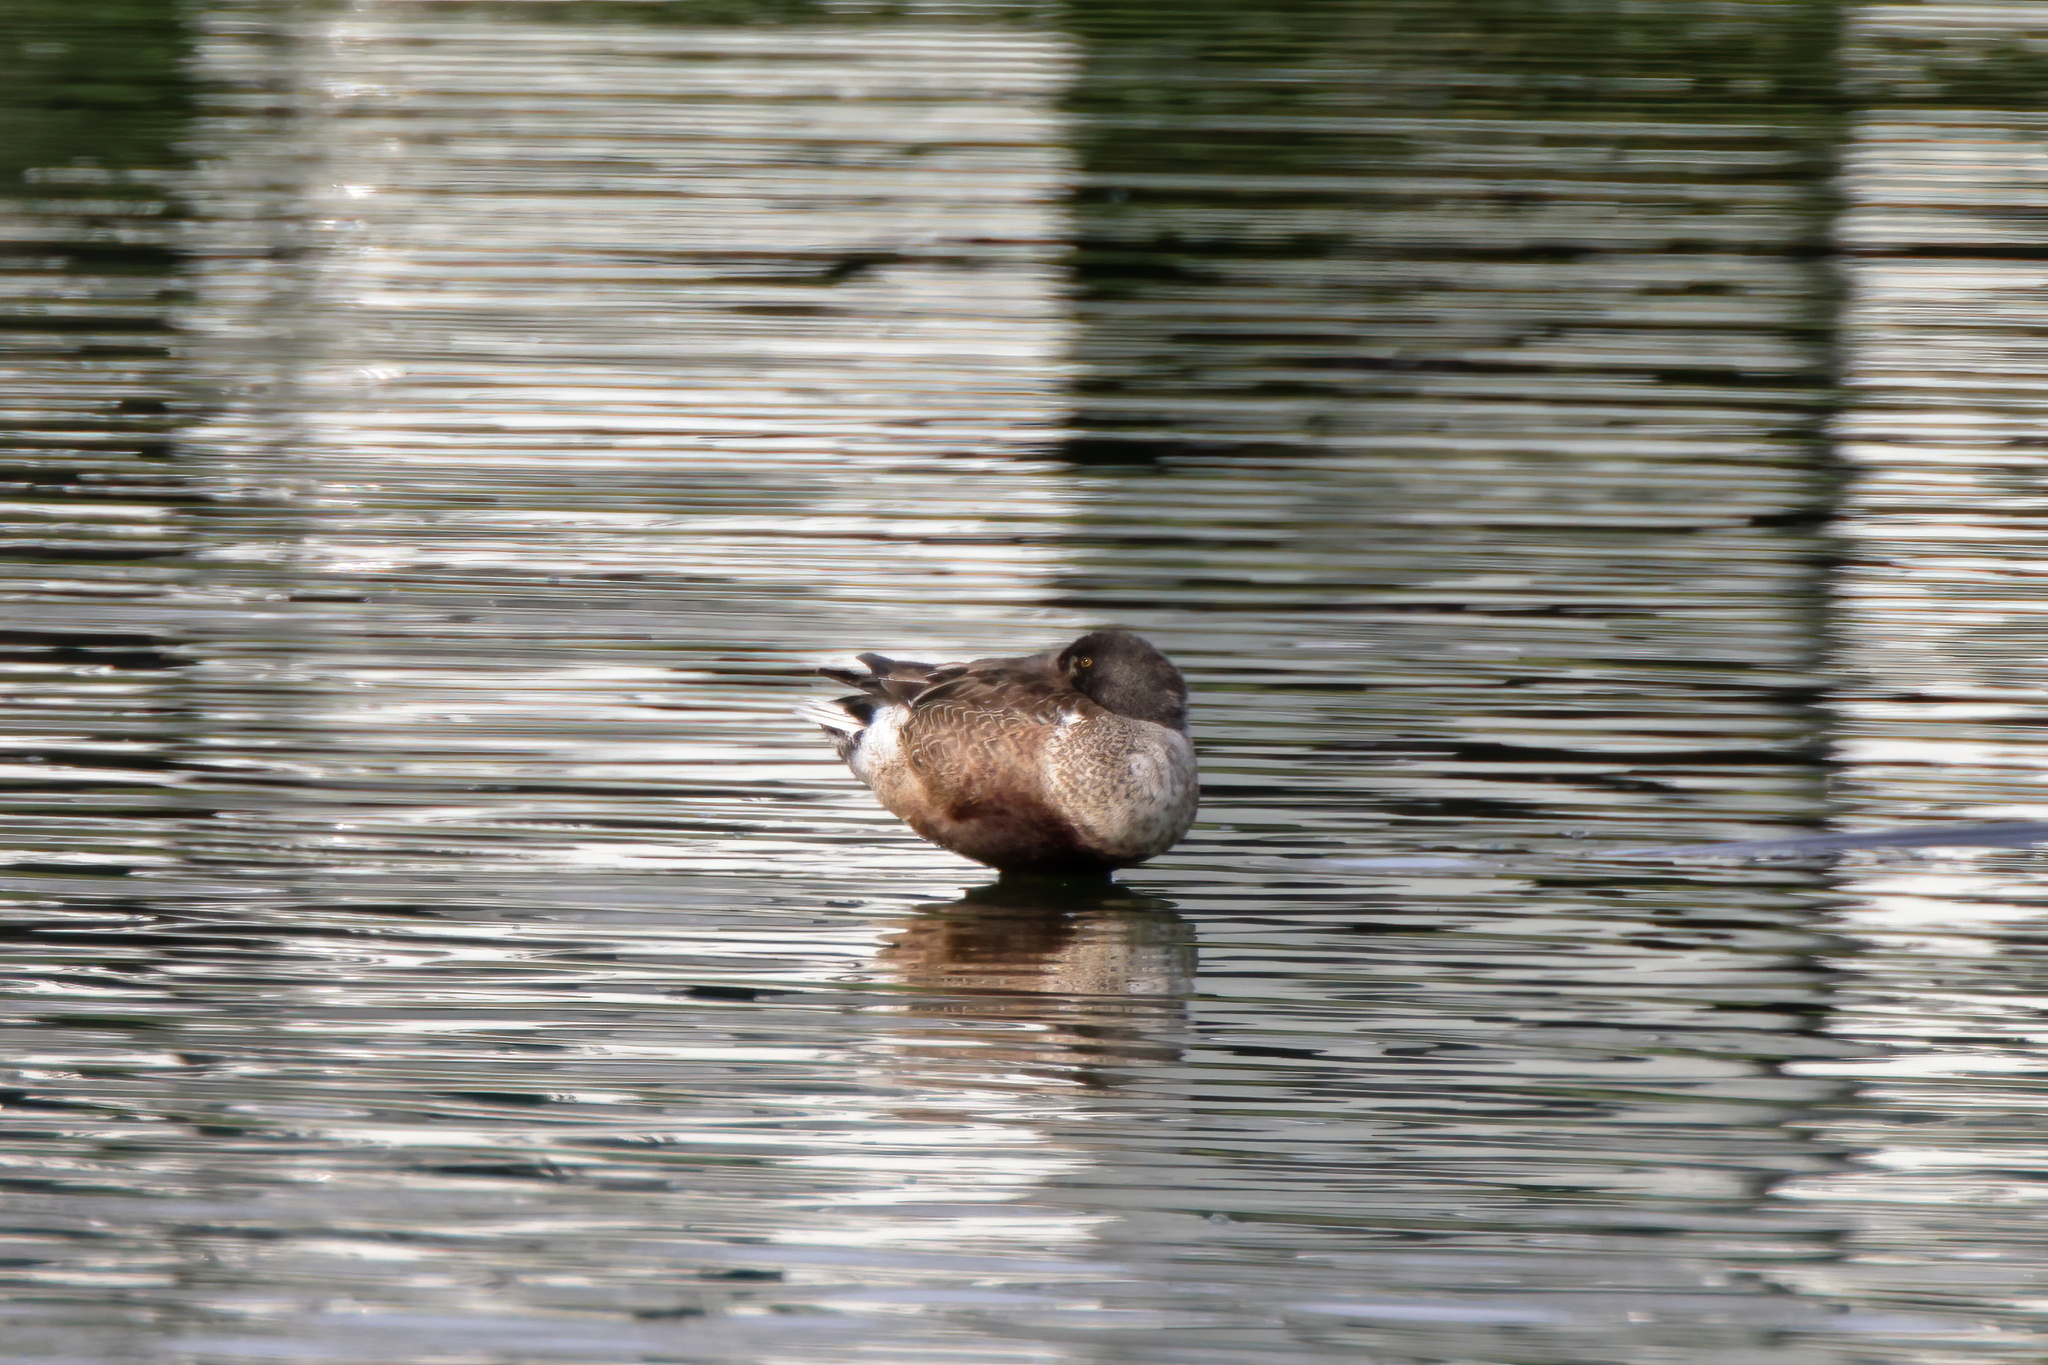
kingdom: Animalia
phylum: Chordata
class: Aves
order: Anseriformes
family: Anatidae
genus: Spatula
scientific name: Spatula clypeata
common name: Northern shoveler
